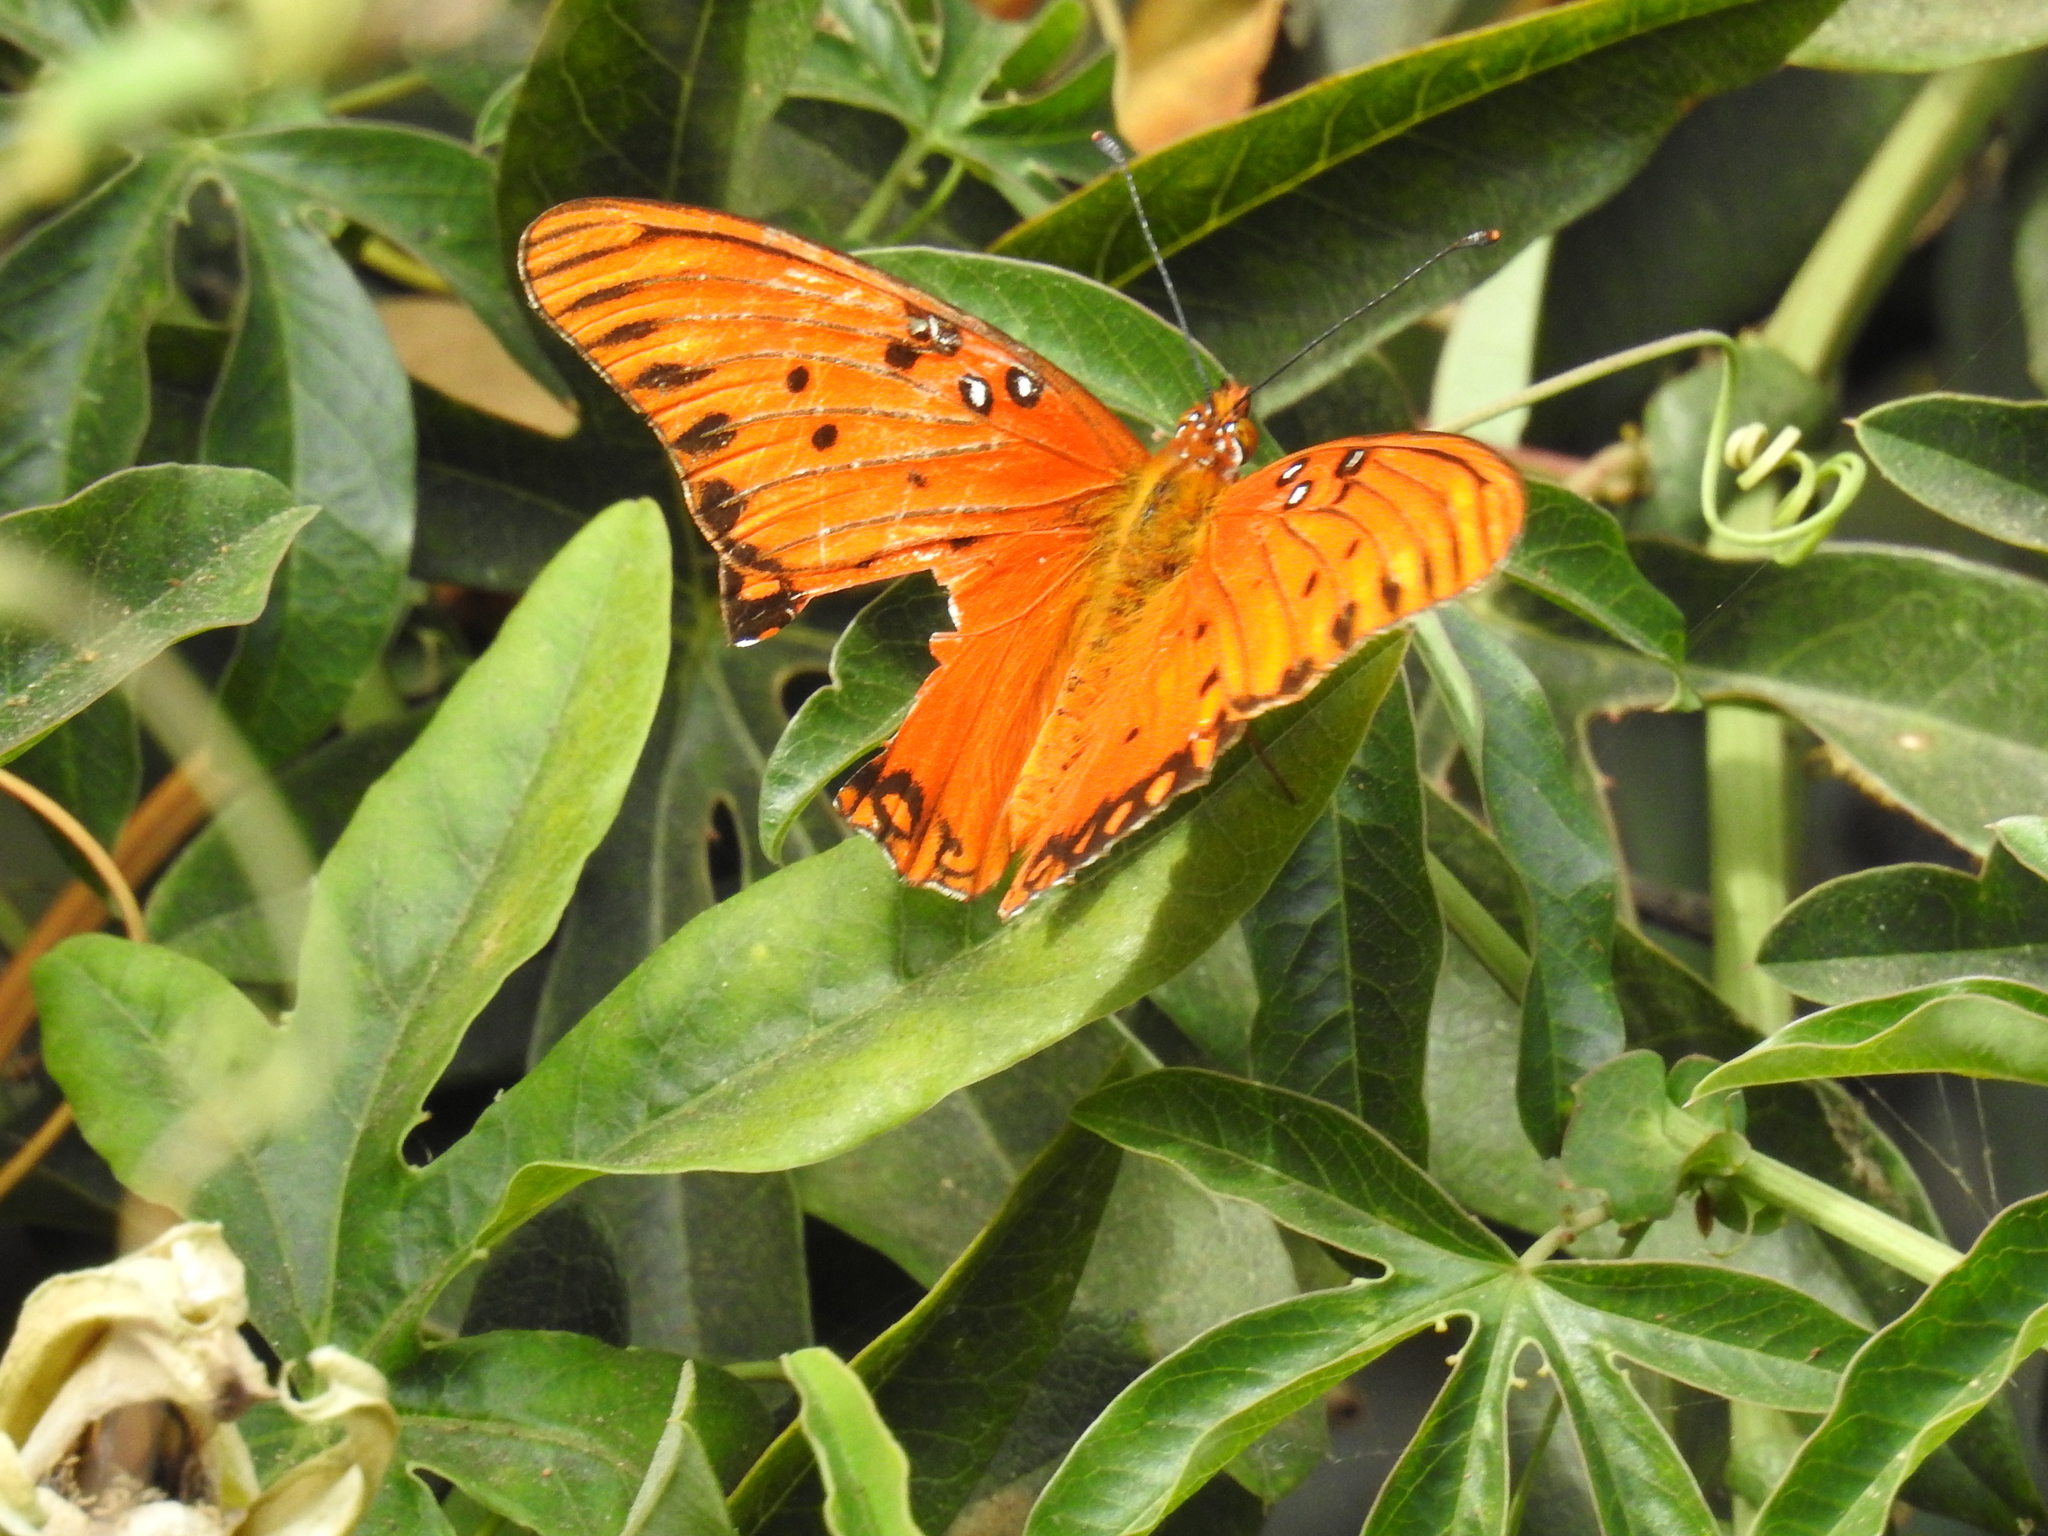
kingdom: Animalia
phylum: Arthropoda
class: Insecta
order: Lepidoptera
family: Nymphalidae
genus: Dione
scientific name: Dione vanillae
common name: Gulf fritillary
